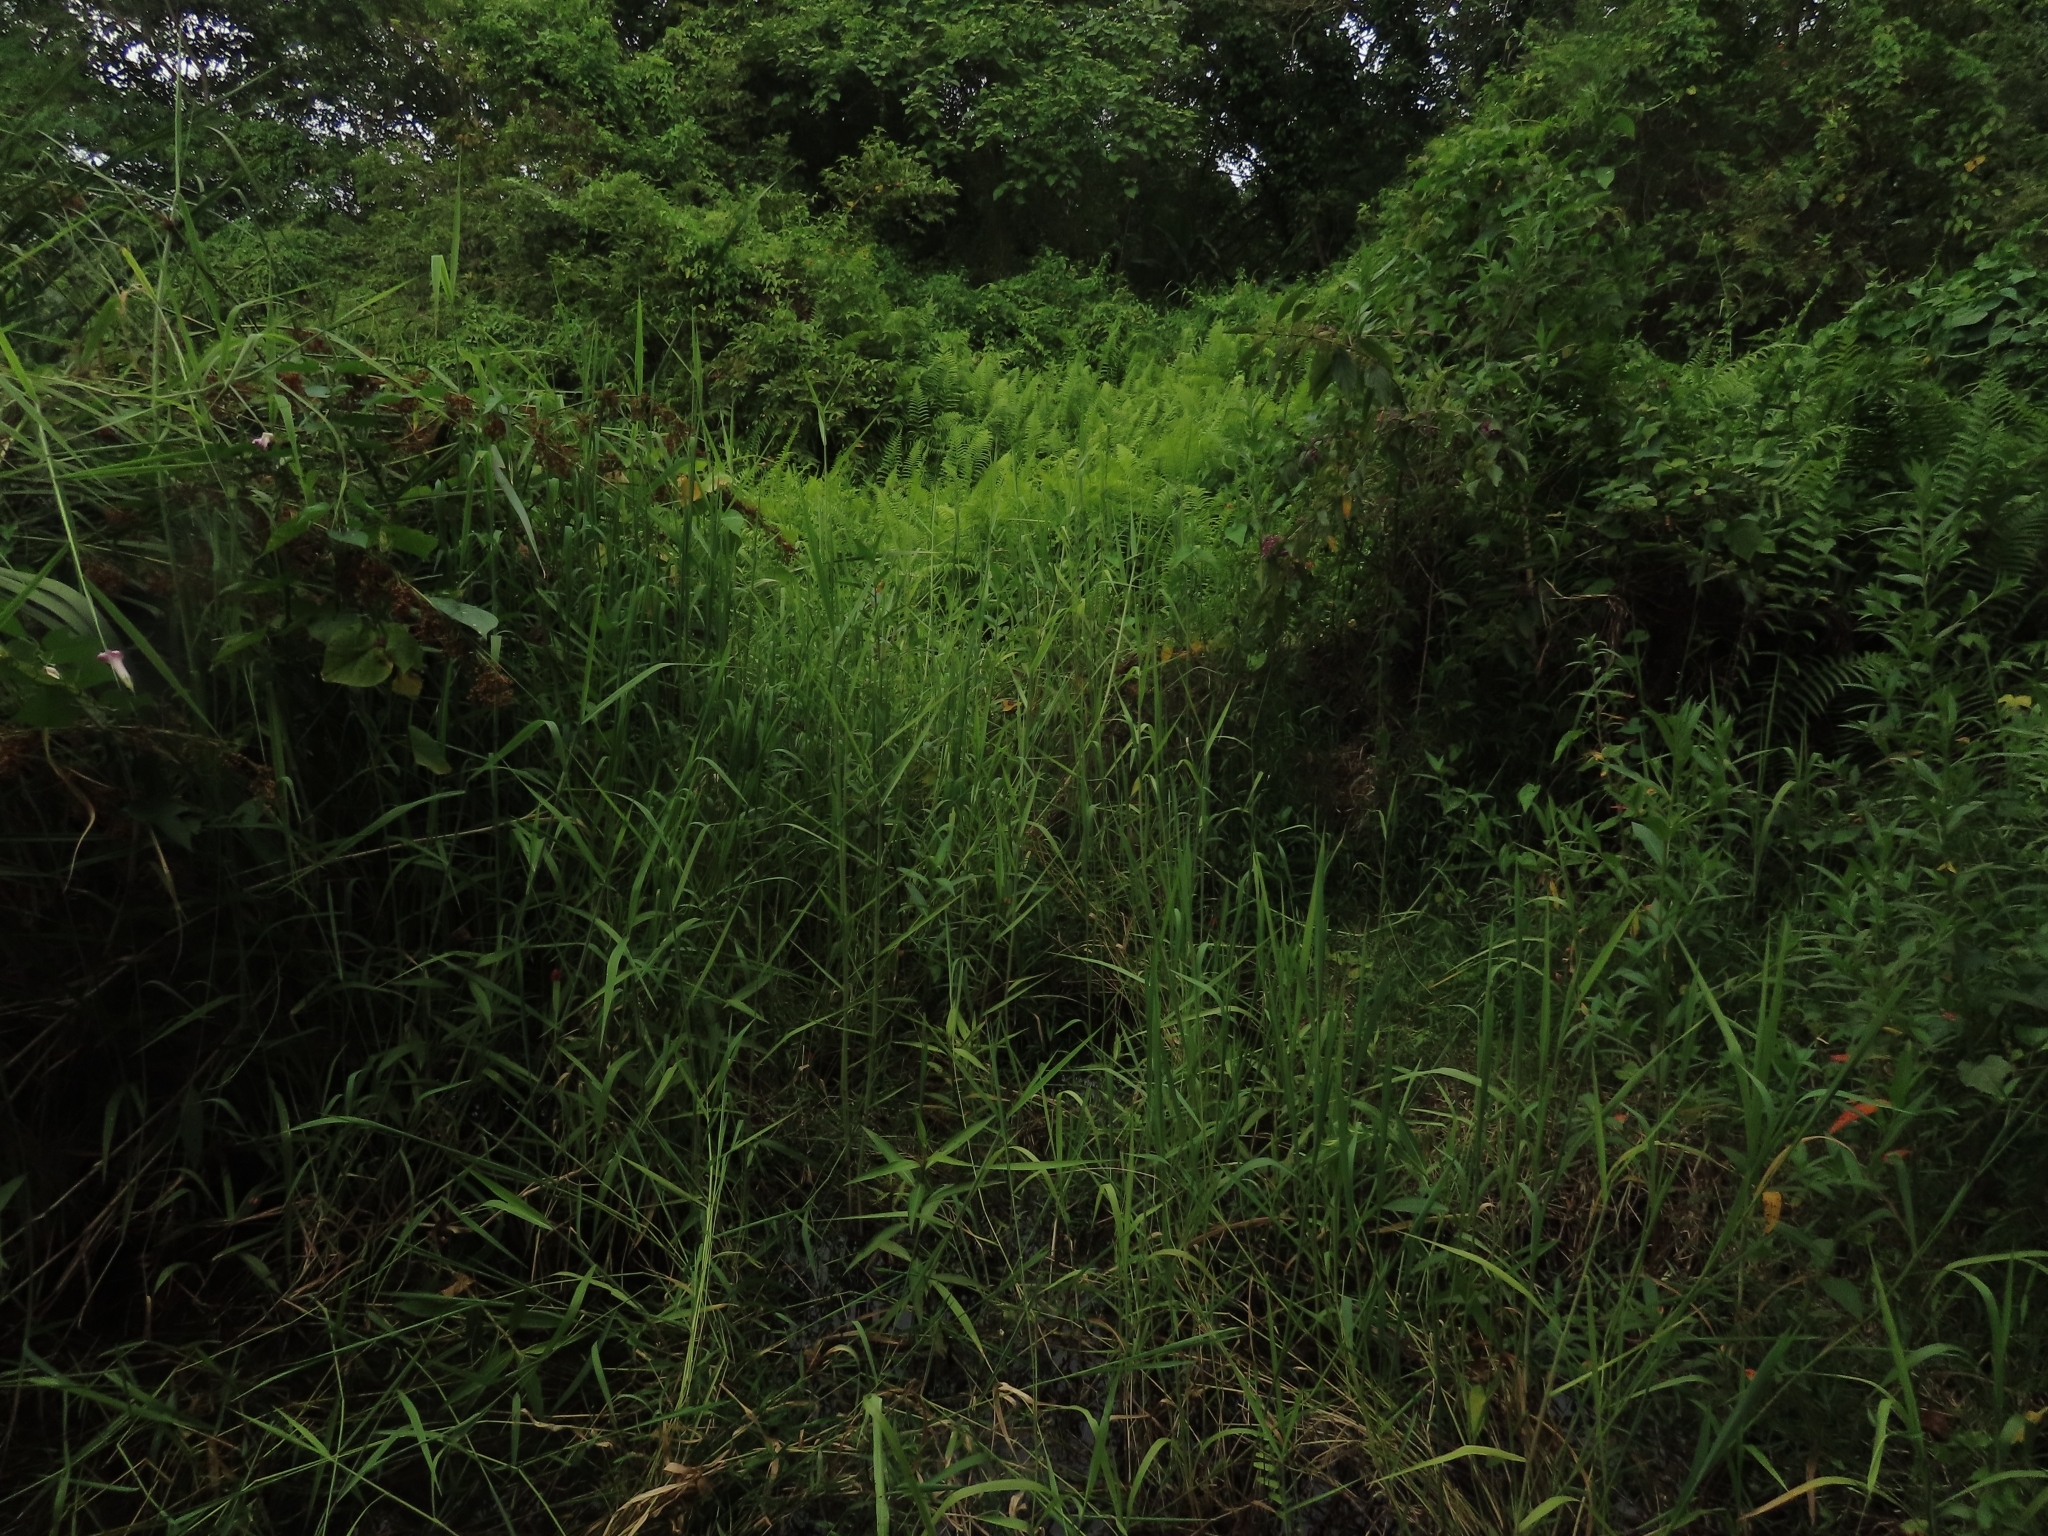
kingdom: Plantae
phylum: Tracheophyta
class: Liliopsida
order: Poales
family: Poaceae
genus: Urochloa
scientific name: Urochloa mutica
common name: Para grass
